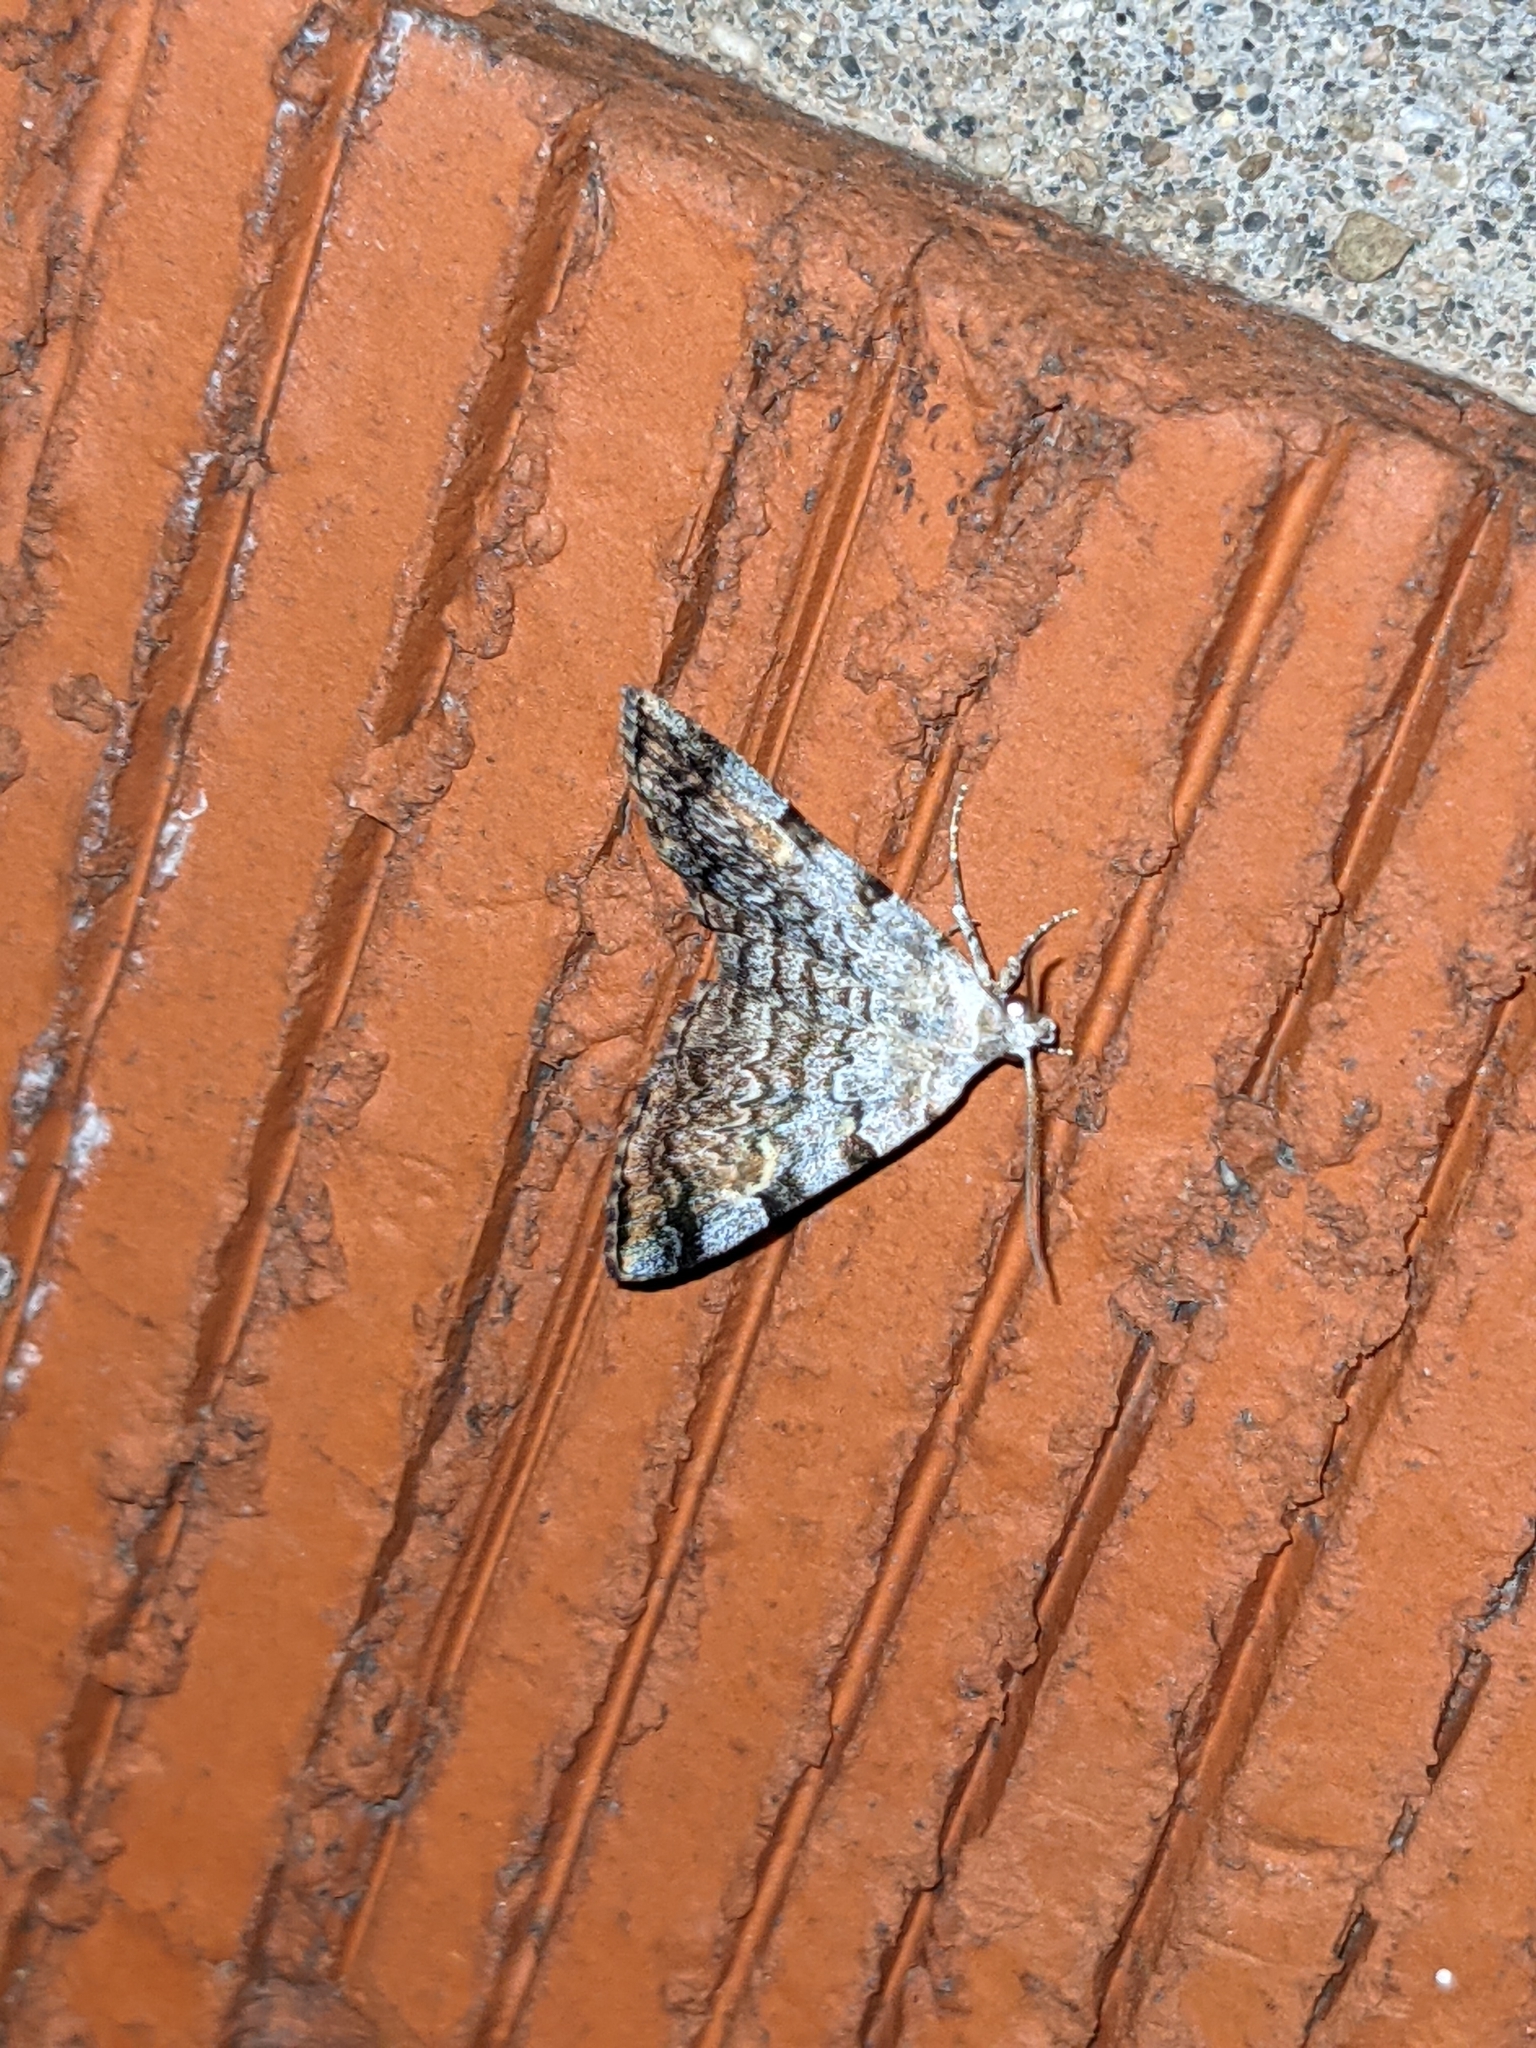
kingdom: Animalia
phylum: Arthropoda
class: Insecta
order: Lepidoptera
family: Erebidae
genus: Idia
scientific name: Idia americalis
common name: American idia moth
